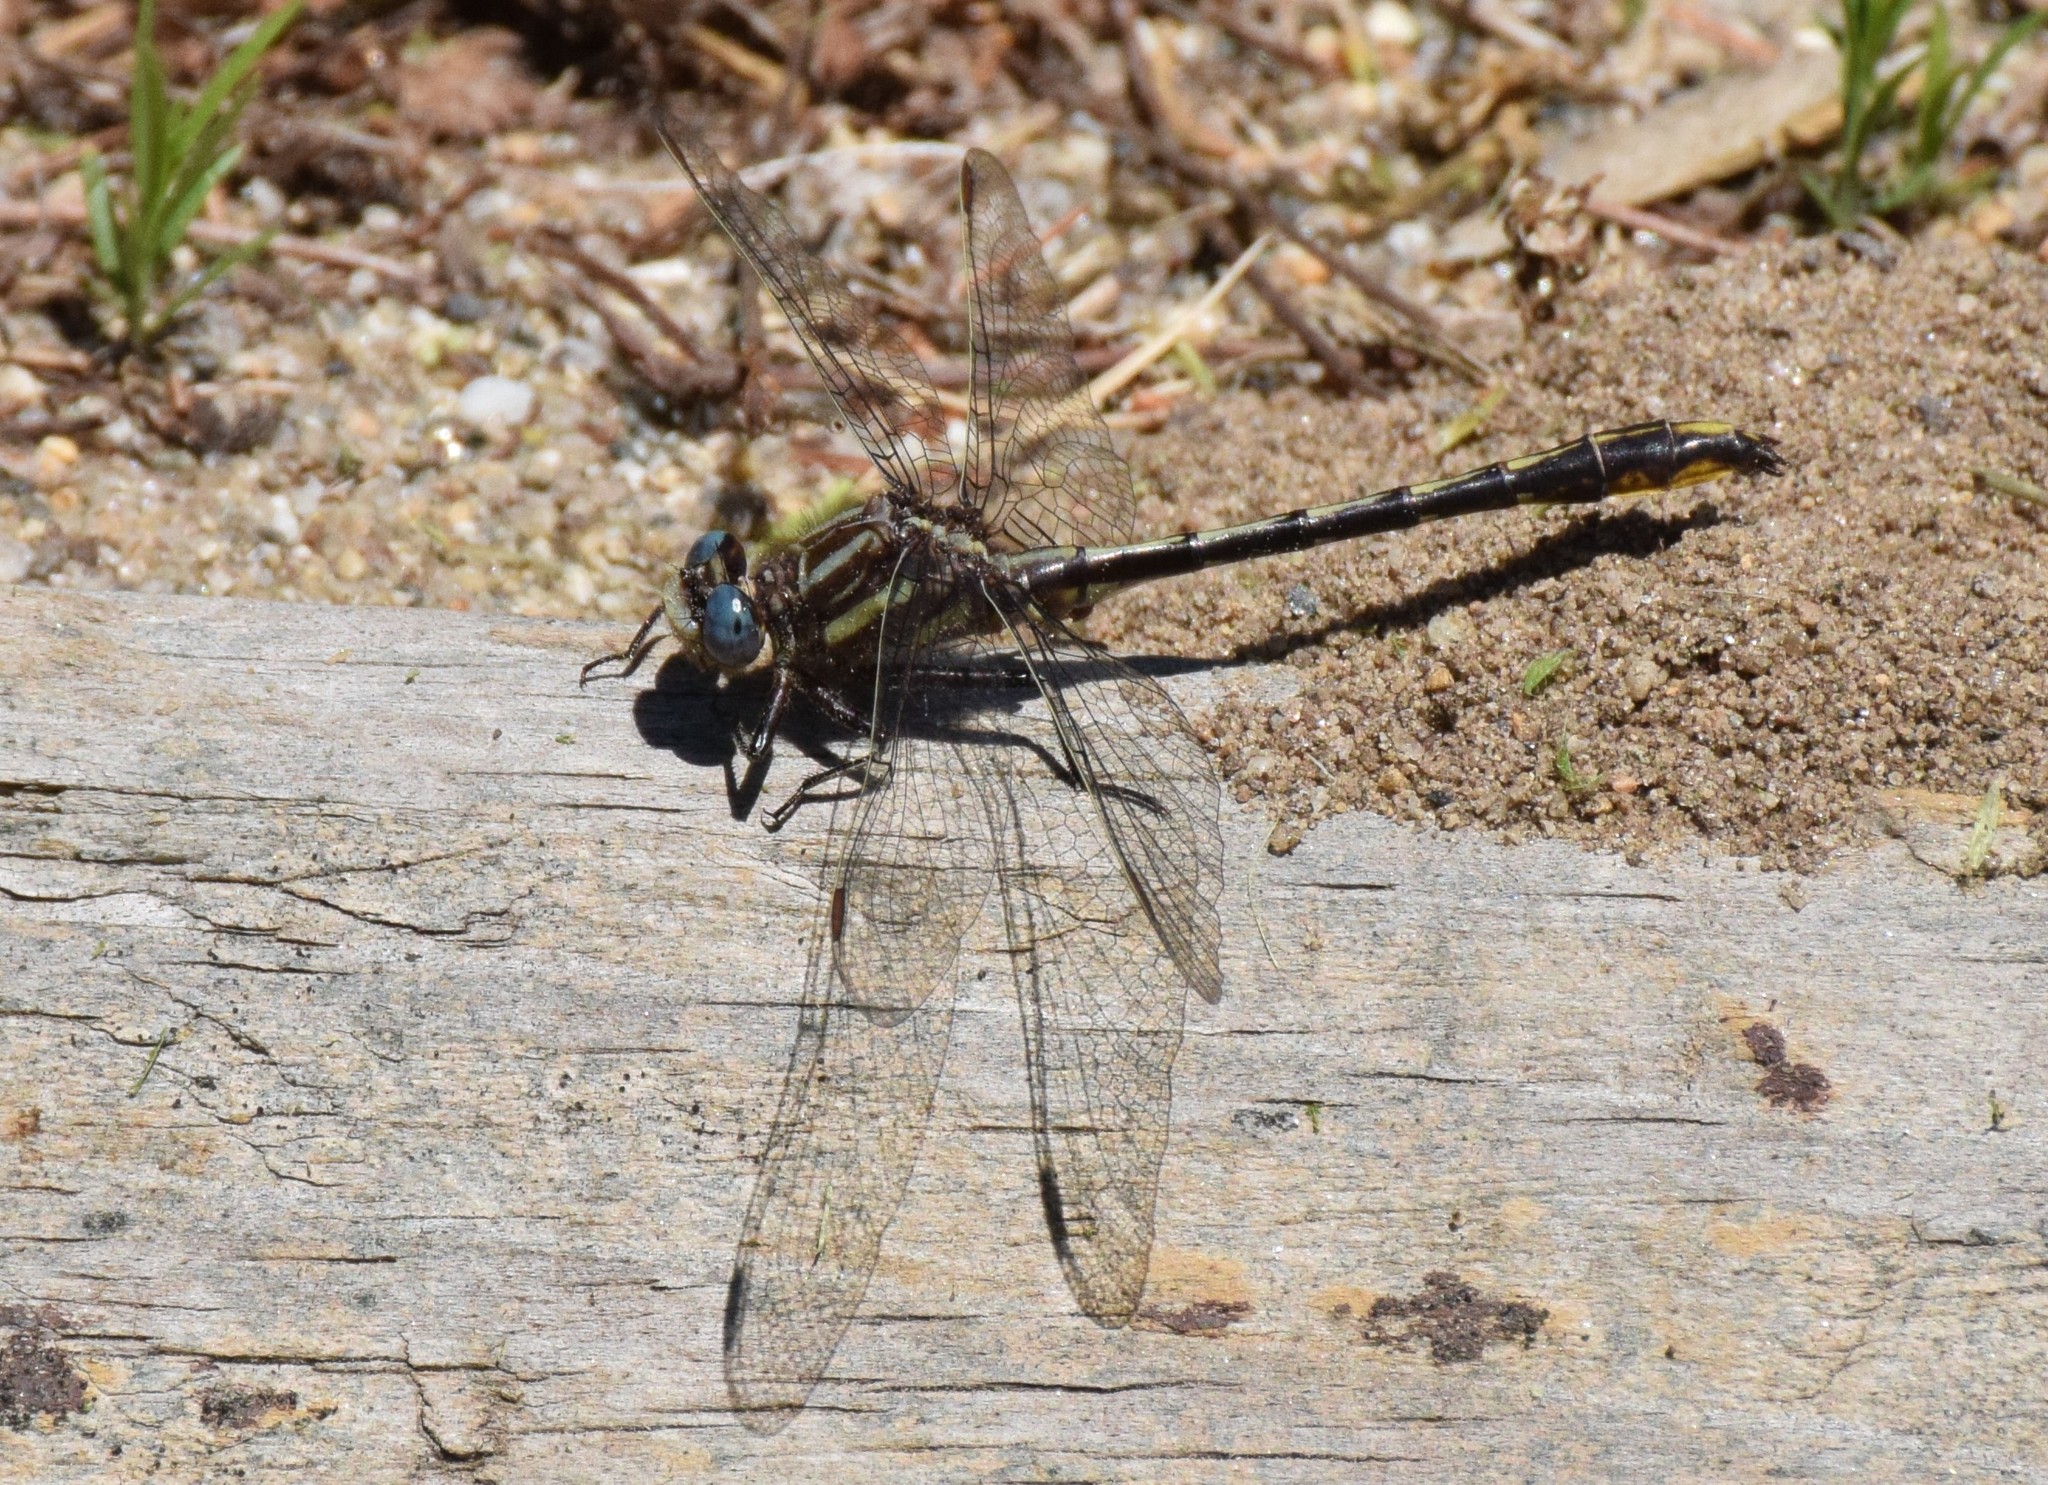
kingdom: Animalia
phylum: Arthropoda
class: Insecta
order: Odonata
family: Gomphidae
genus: Phanogomphus
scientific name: Phanogomphus exilis
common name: Lancet clubtail
